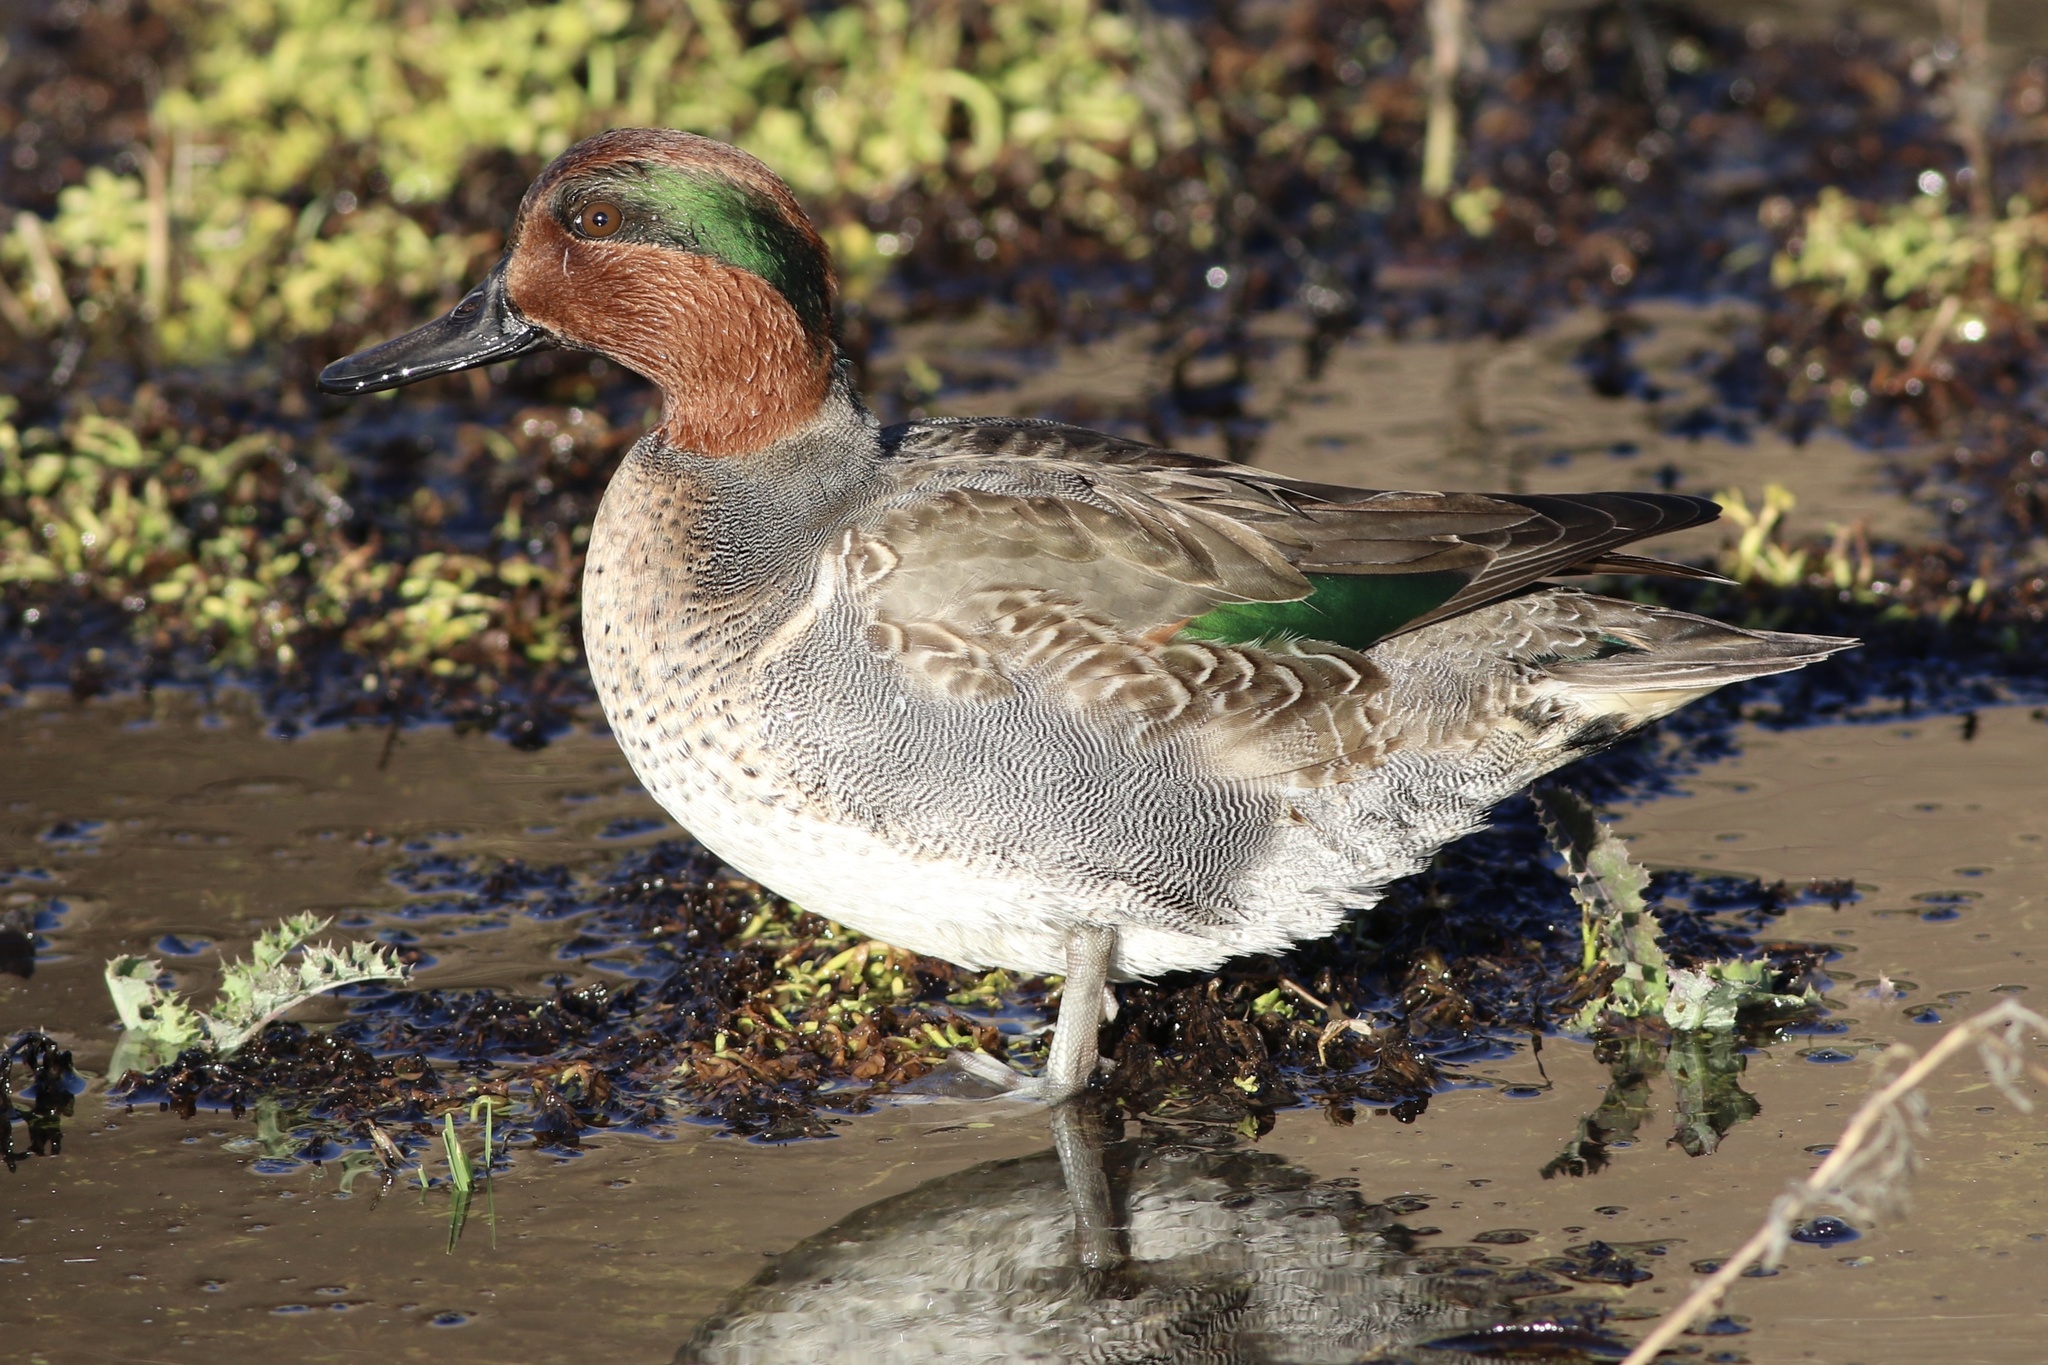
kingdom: Animalia
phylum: Chordata
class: Aves
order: Anseriformes
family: Anatidae
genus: Anas
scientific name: Anas carolinensis
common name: Green-winged teal
